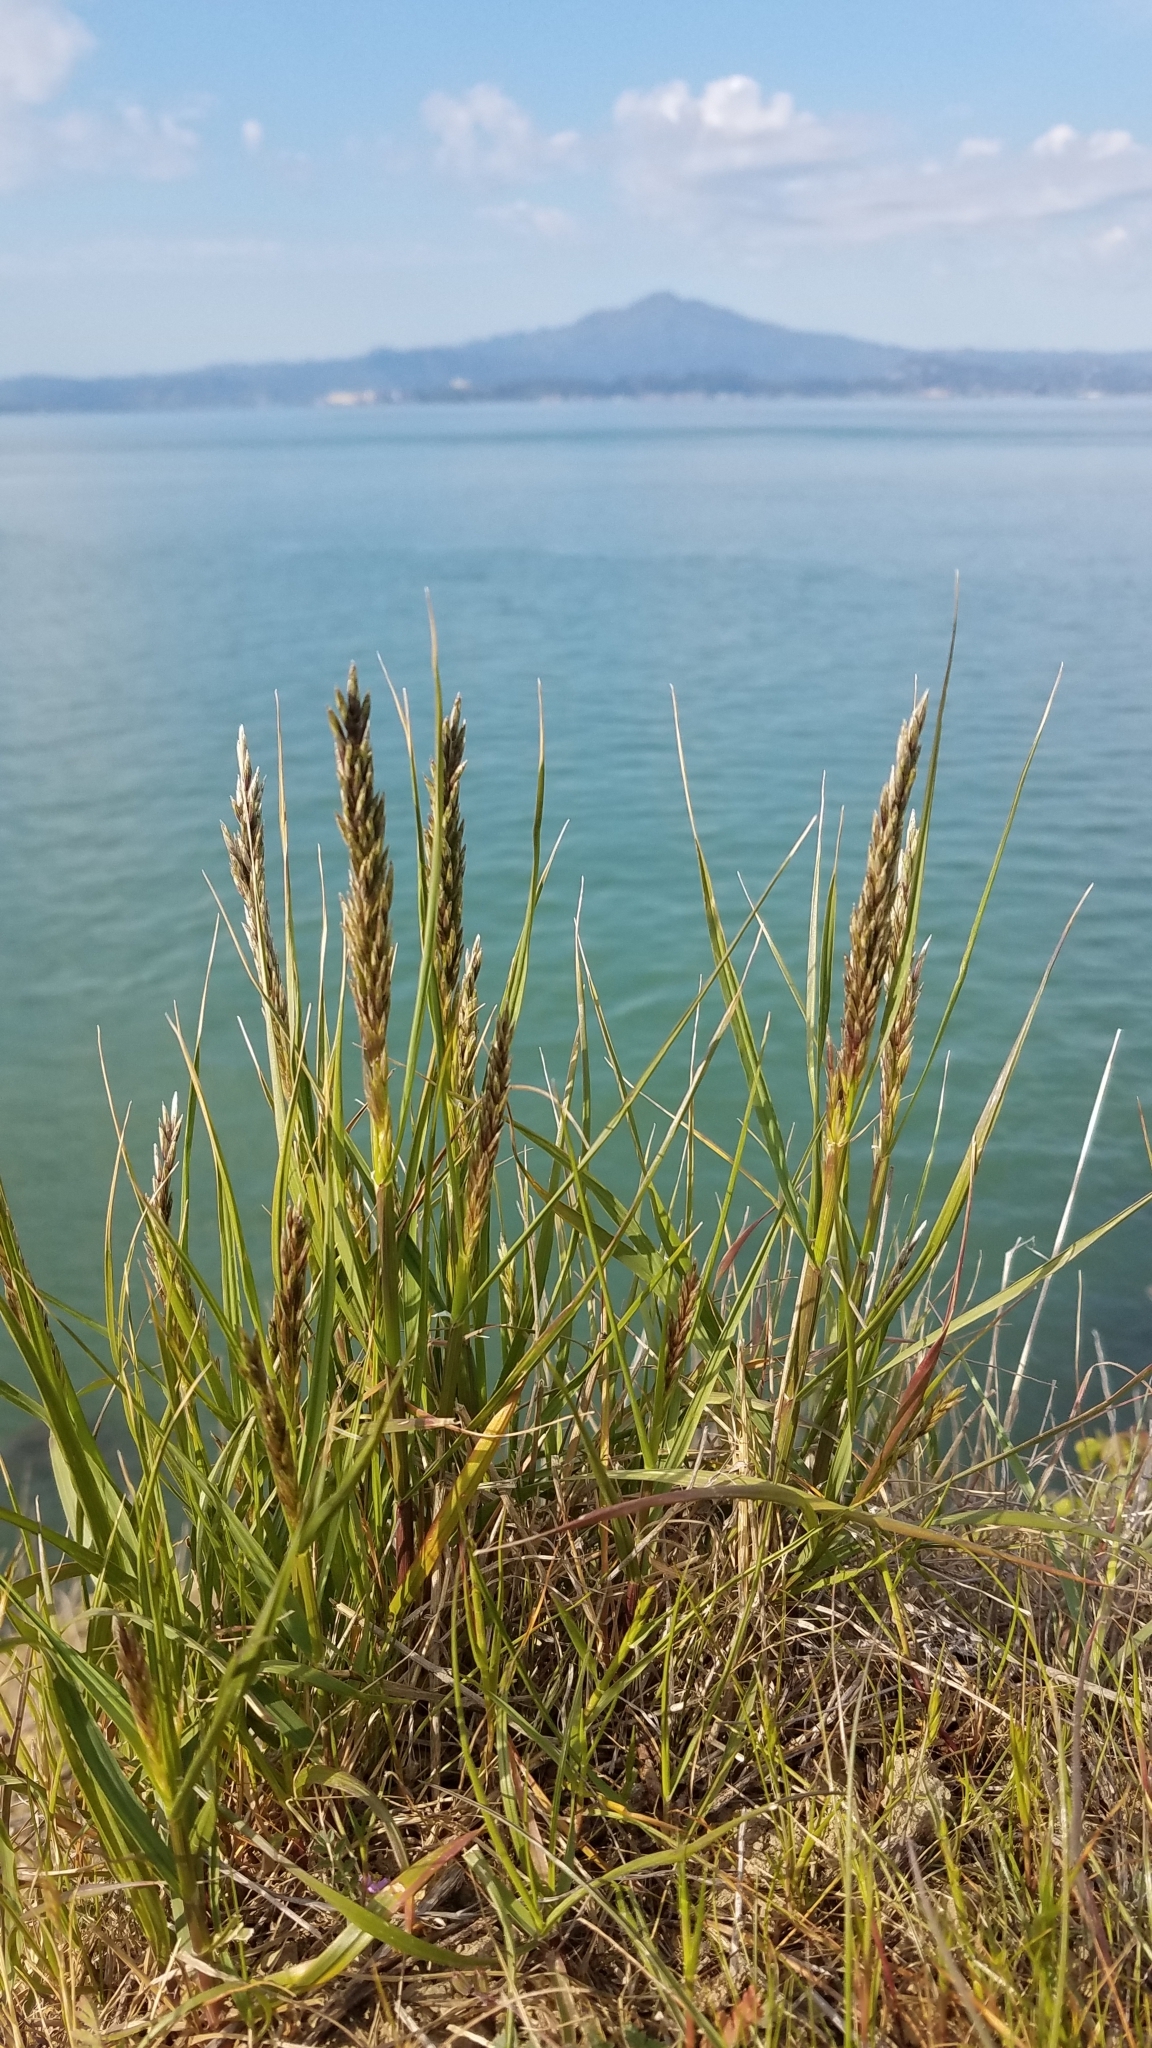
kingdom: Plantae
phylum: Tracheophyta
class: Liliopsida
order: Poales
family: Poaceae
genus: Koeleria
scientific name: Koeleria macrantha
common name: Crested hair-grass
